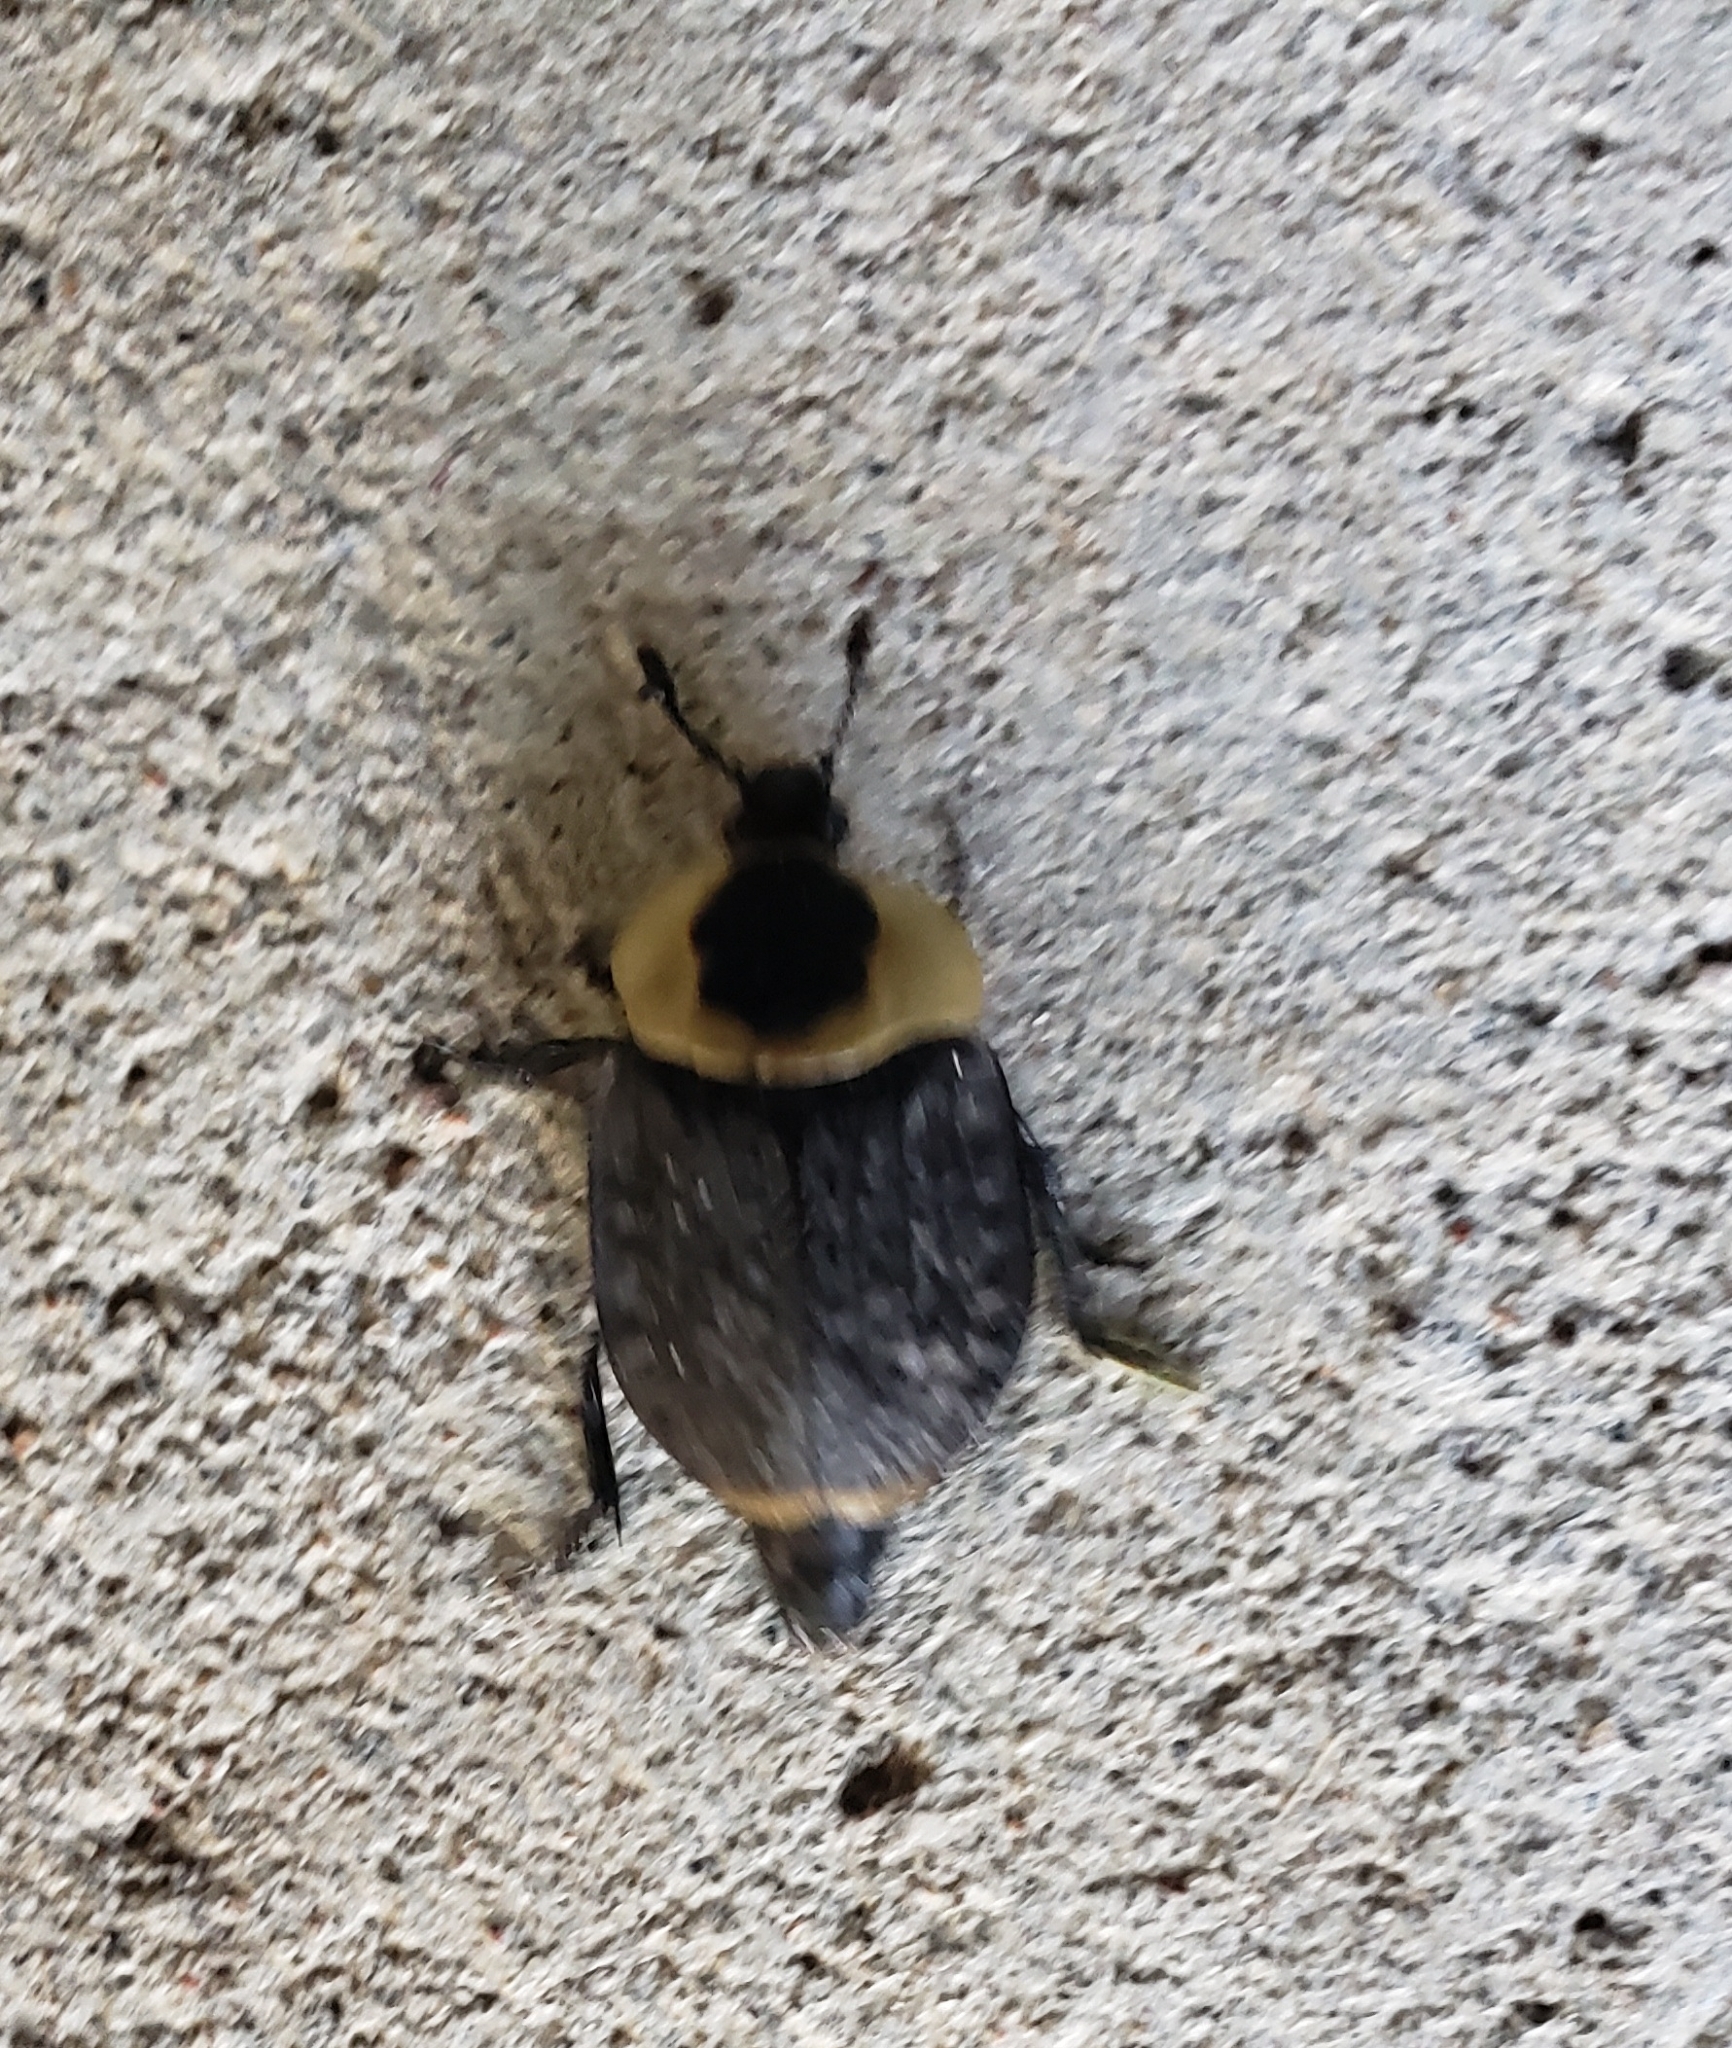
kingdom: Animalia
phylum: Arthropoda
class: Insecta
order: Coleoptera
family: Staphylinidae
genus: Necrophila
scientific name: Necrophila americana
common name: American carrion beetle
